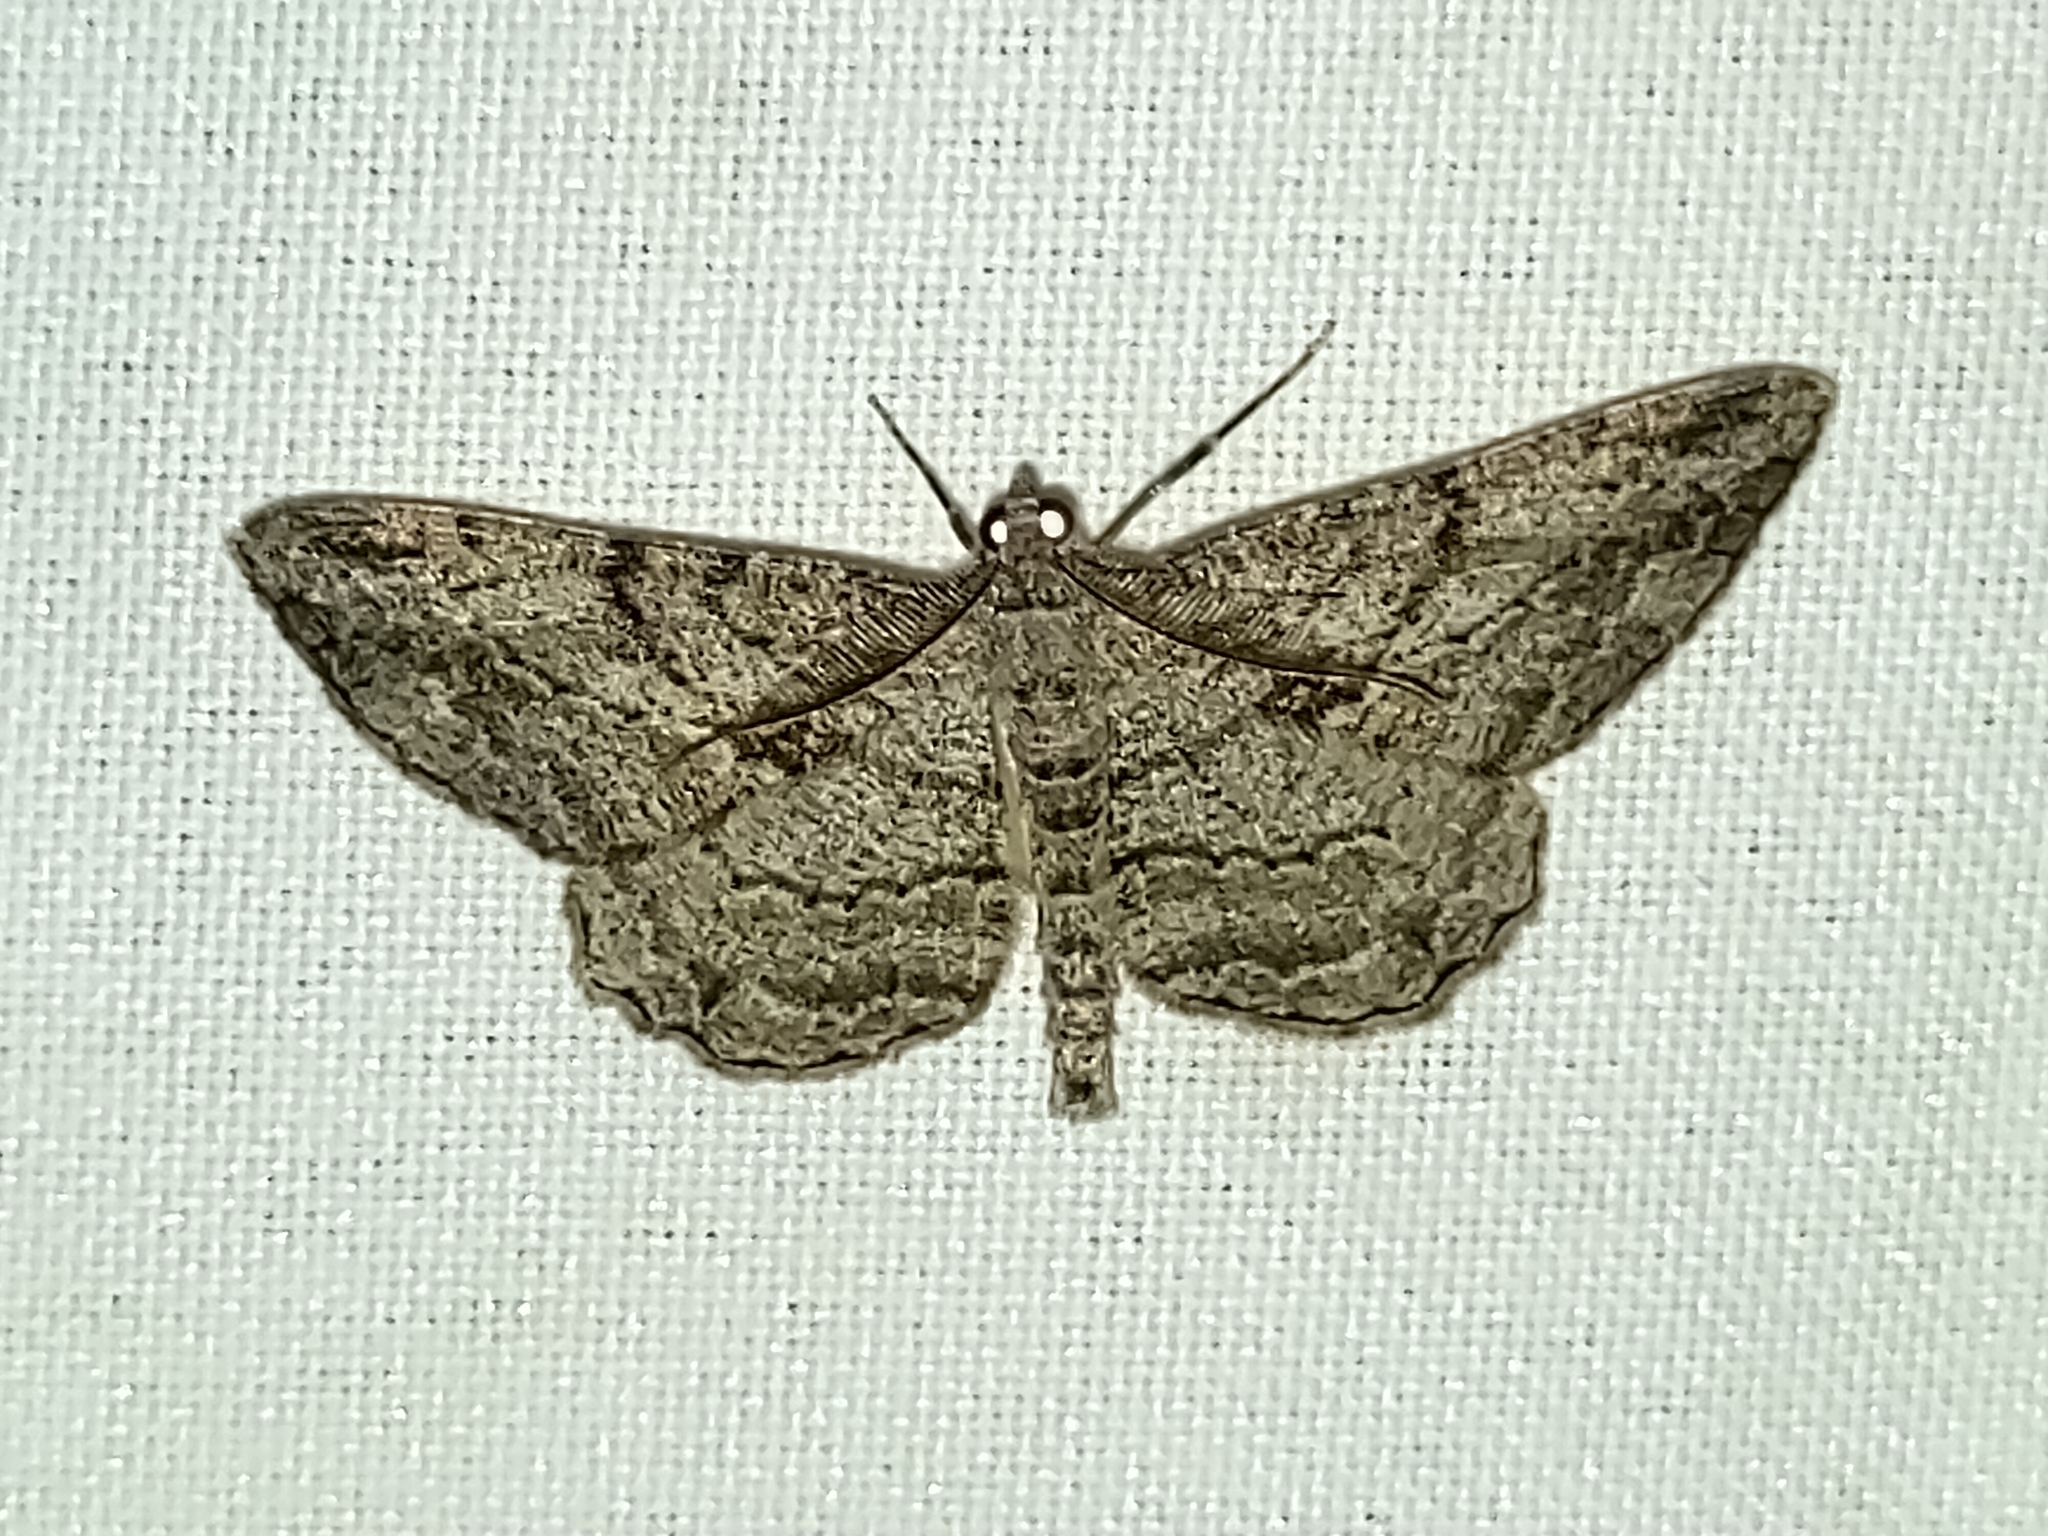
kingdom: Animalia
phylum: Arthropoda
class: Insecta
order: Lepidoptera
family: Geometridae
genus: Peribatodes
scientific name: Peribatodes rhomboidaria
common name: Willow beauty
